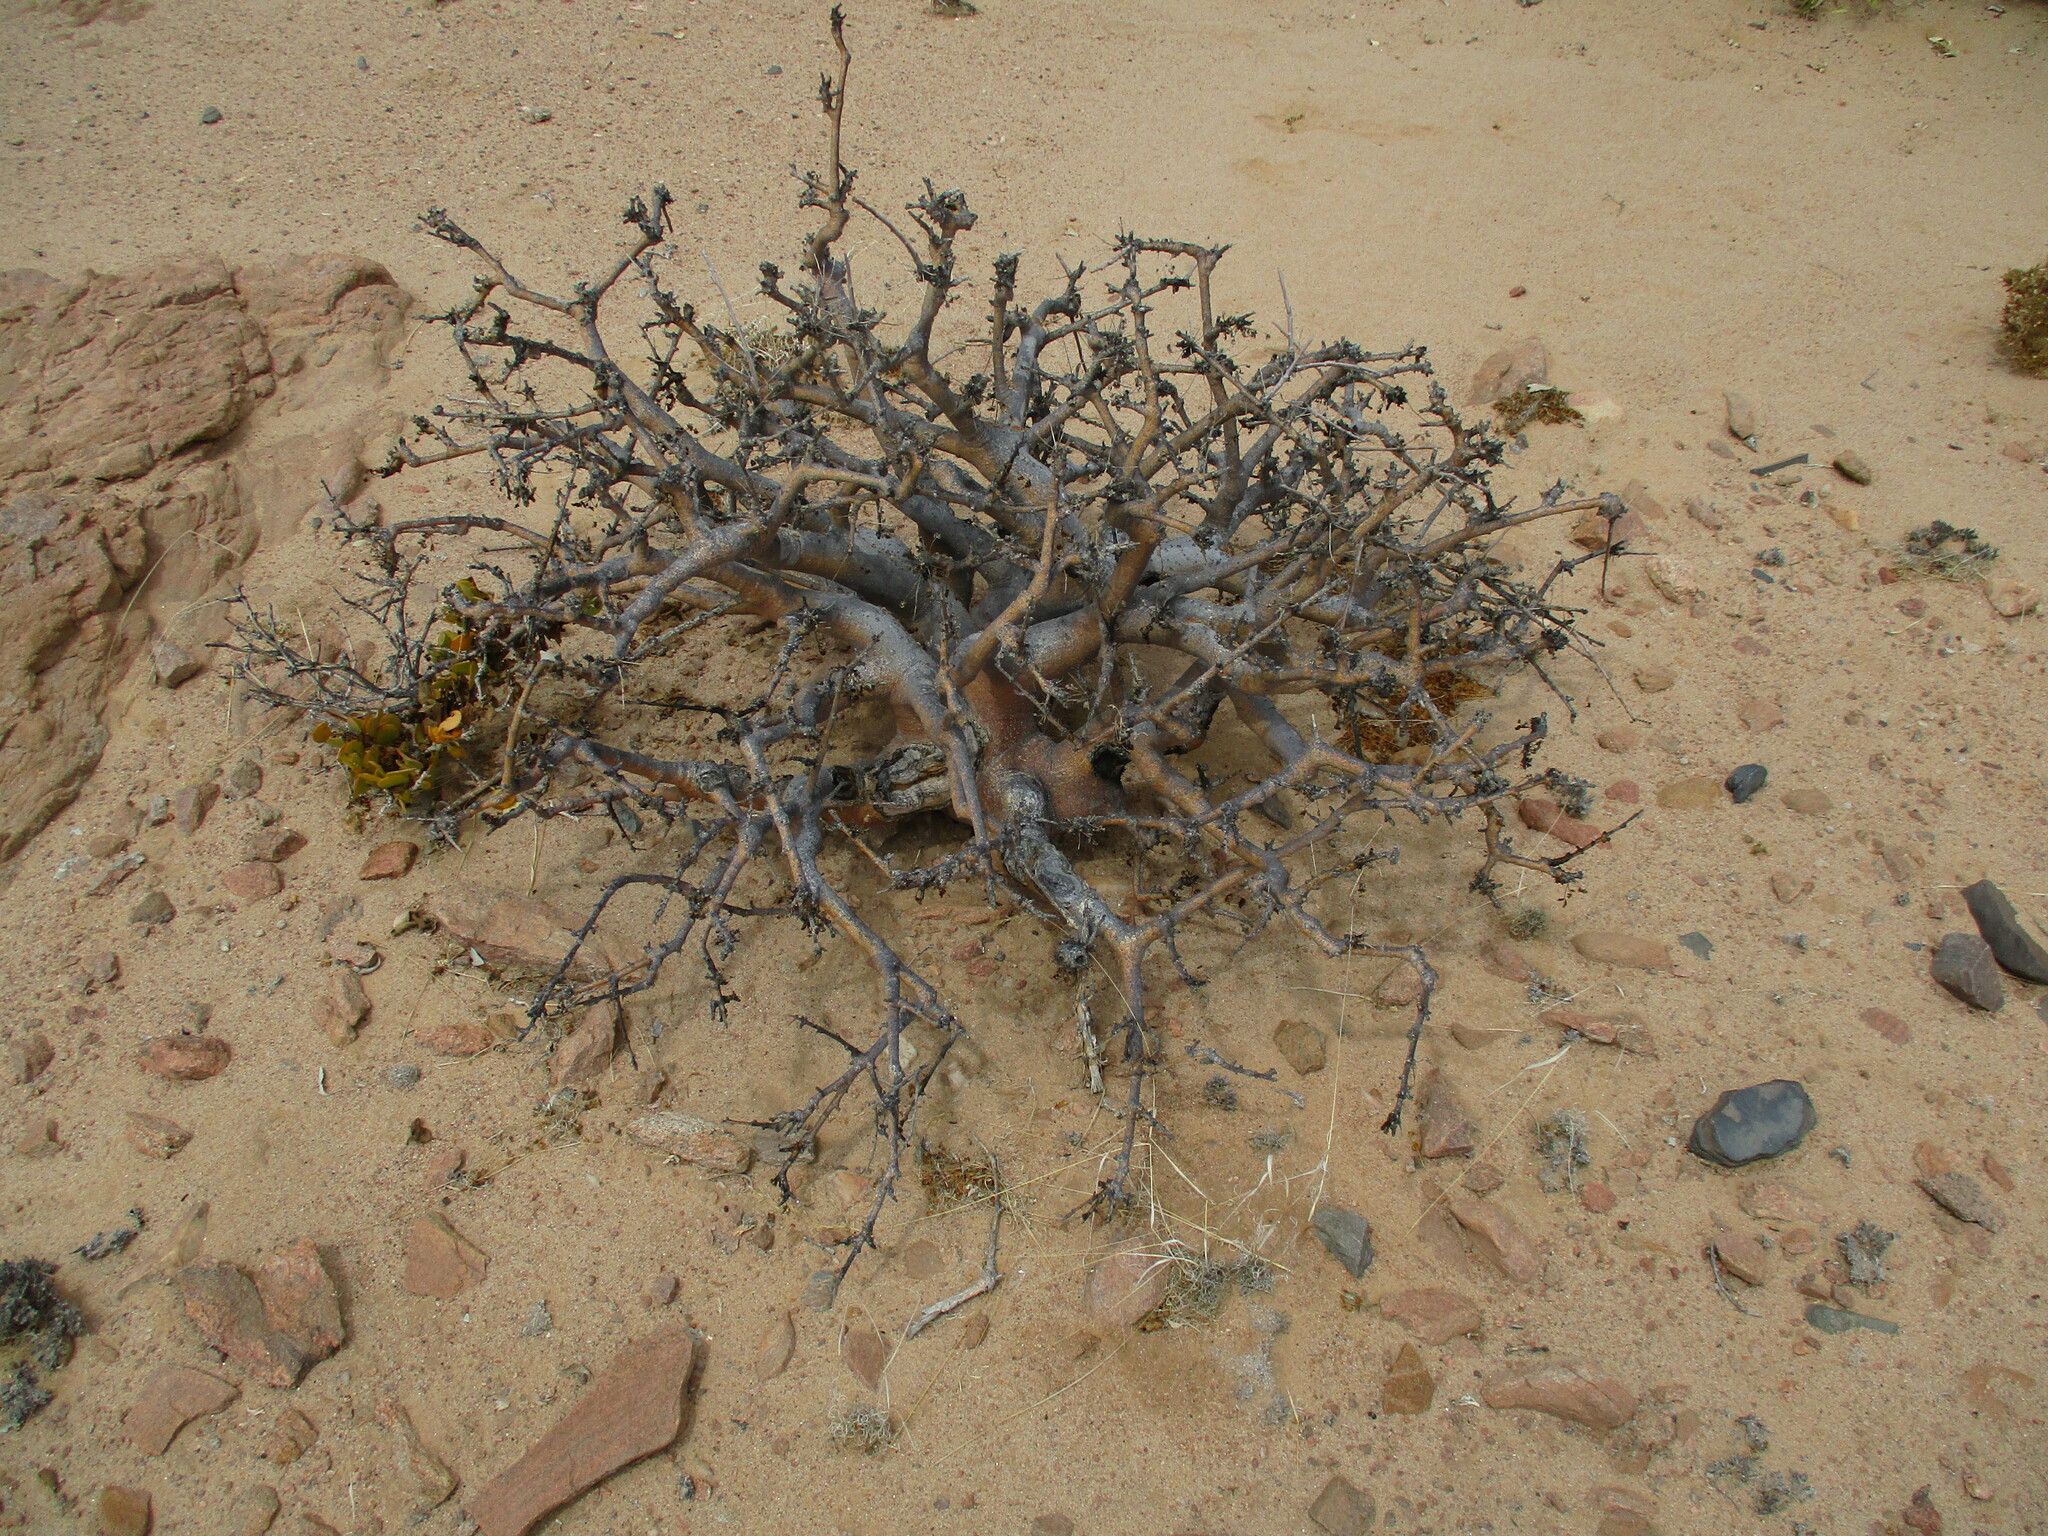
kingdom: Plantae
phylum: Tracheophyta
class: Magnoliopsida
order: Sapindales
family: Burseraceae
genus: Commiphora
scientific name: Commiphora saxicola
